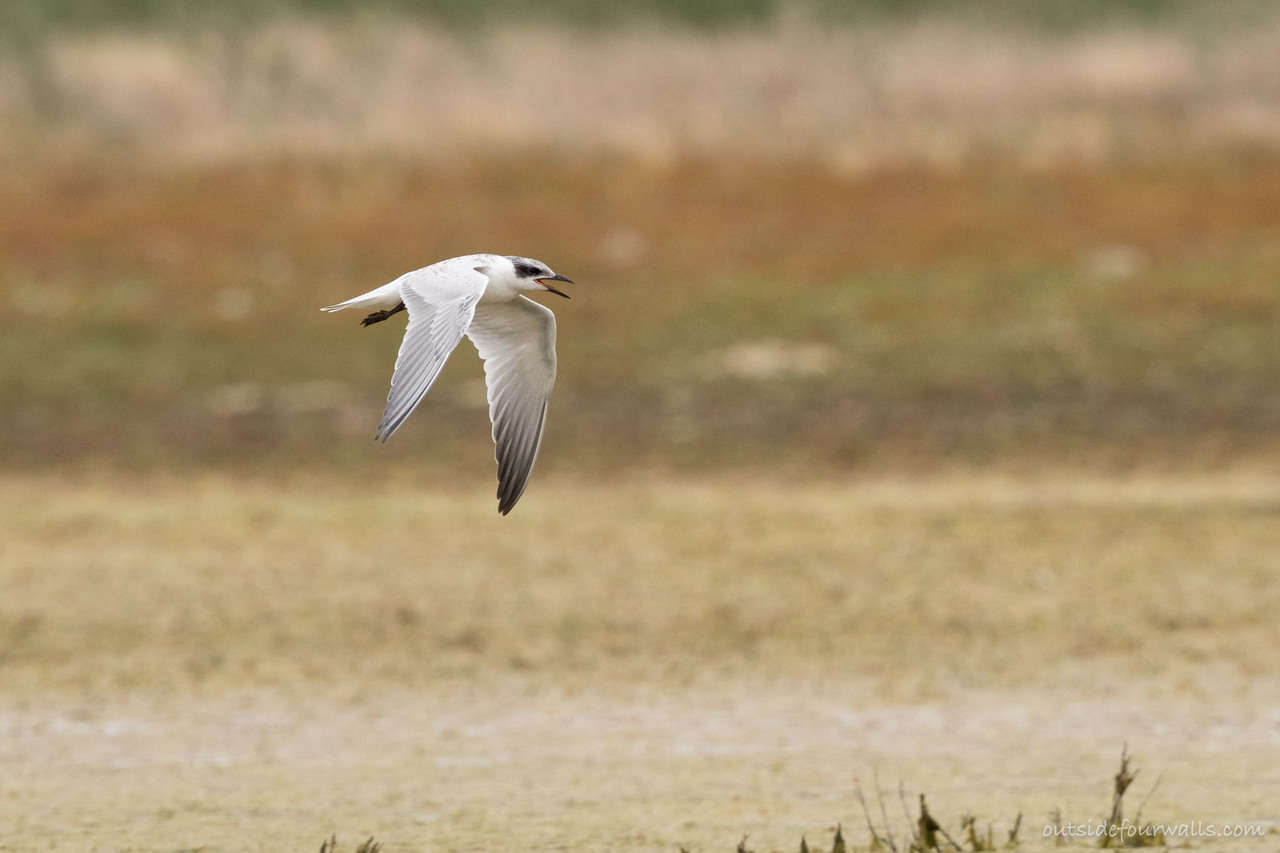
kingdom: Animalia
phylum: Chordata
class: Aves
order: Charadriiformes
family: Laridae
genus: Gelochelidon
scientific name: Gelochelidon macrotarsa
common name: Australian tern
